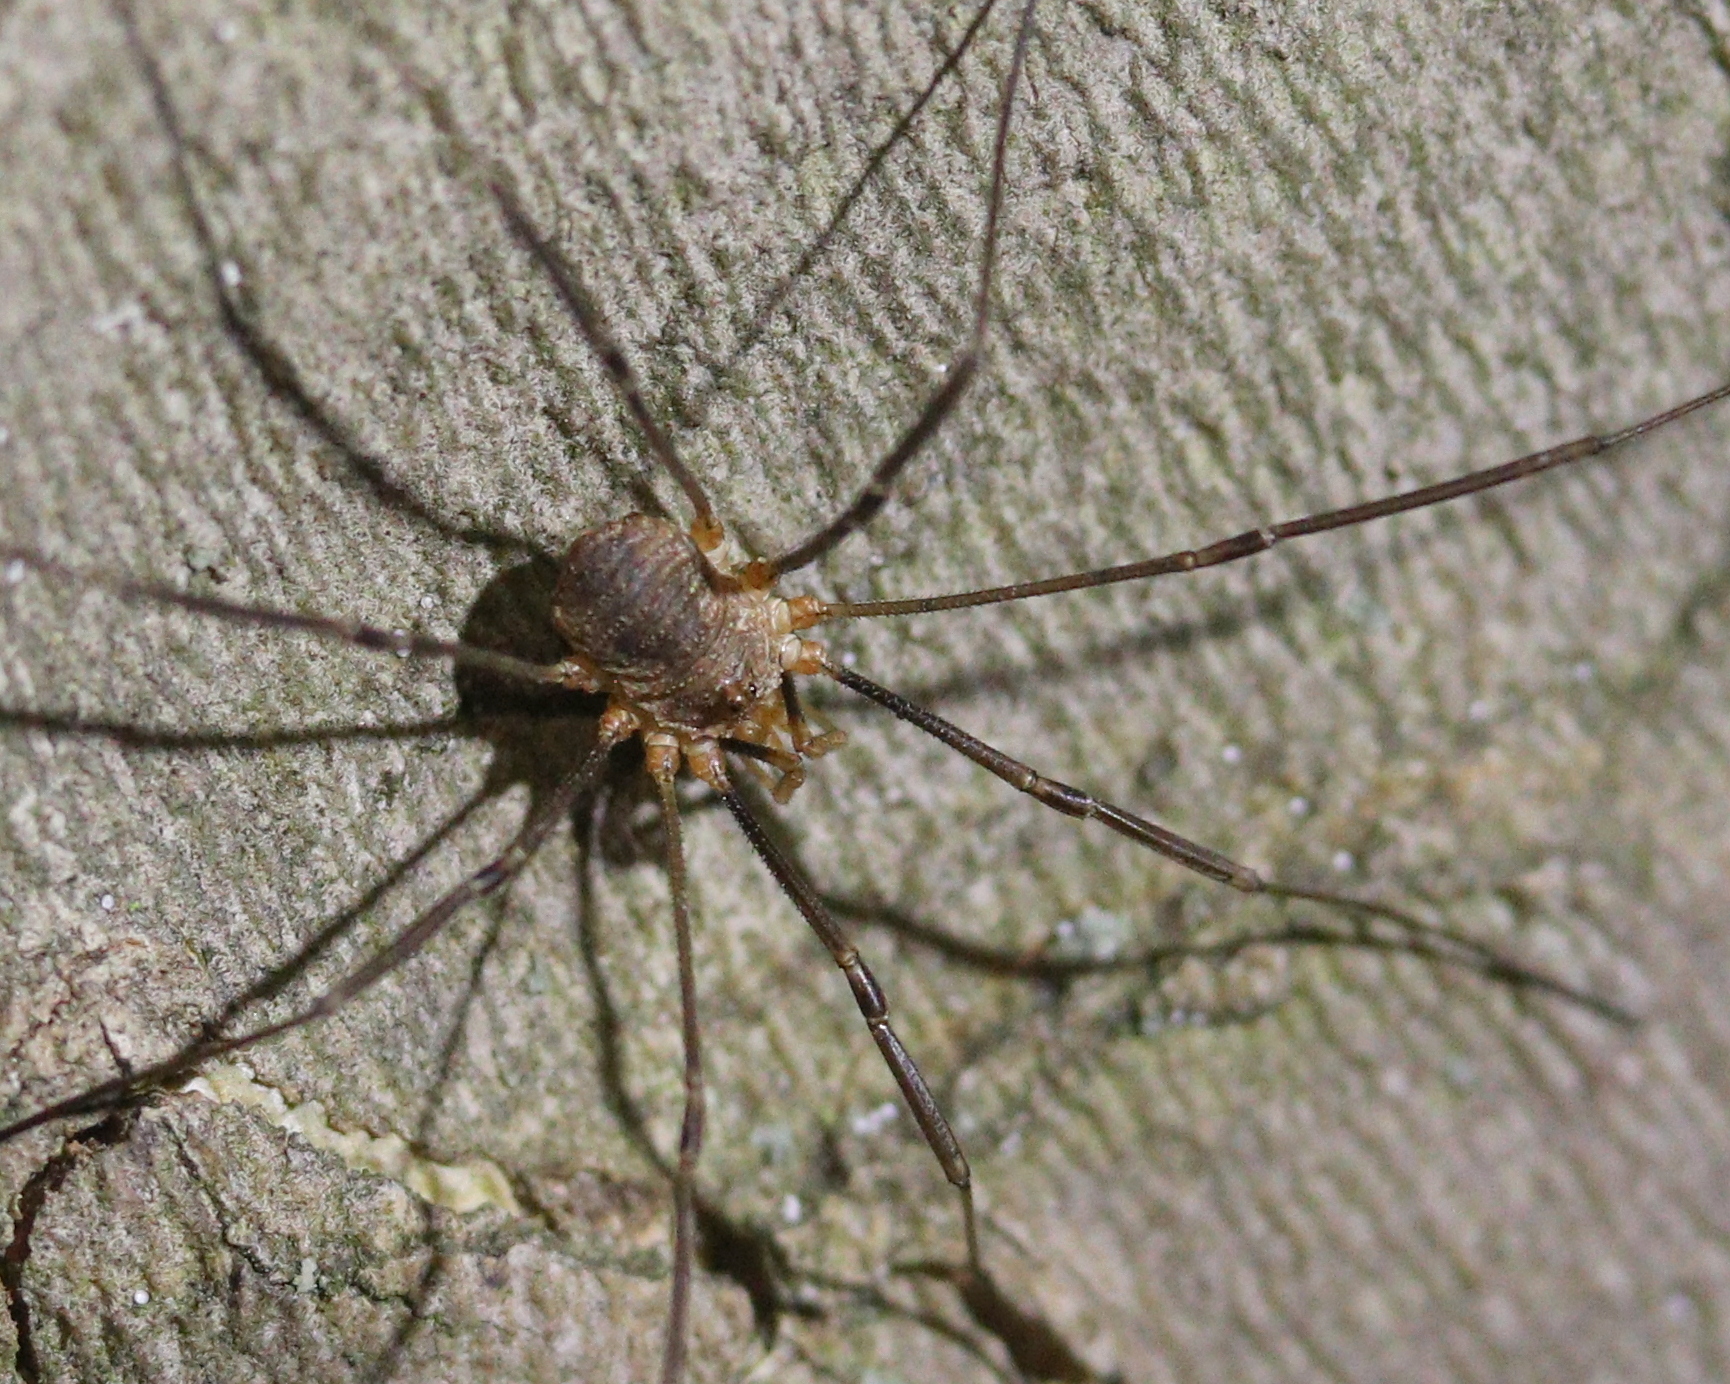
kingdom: Animalia
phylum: Arthropoda
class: Arachnida
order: Opiliones
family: Phalangiidae
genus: Phalangium
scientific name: Phalangium opilio
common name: Daddy longleg
